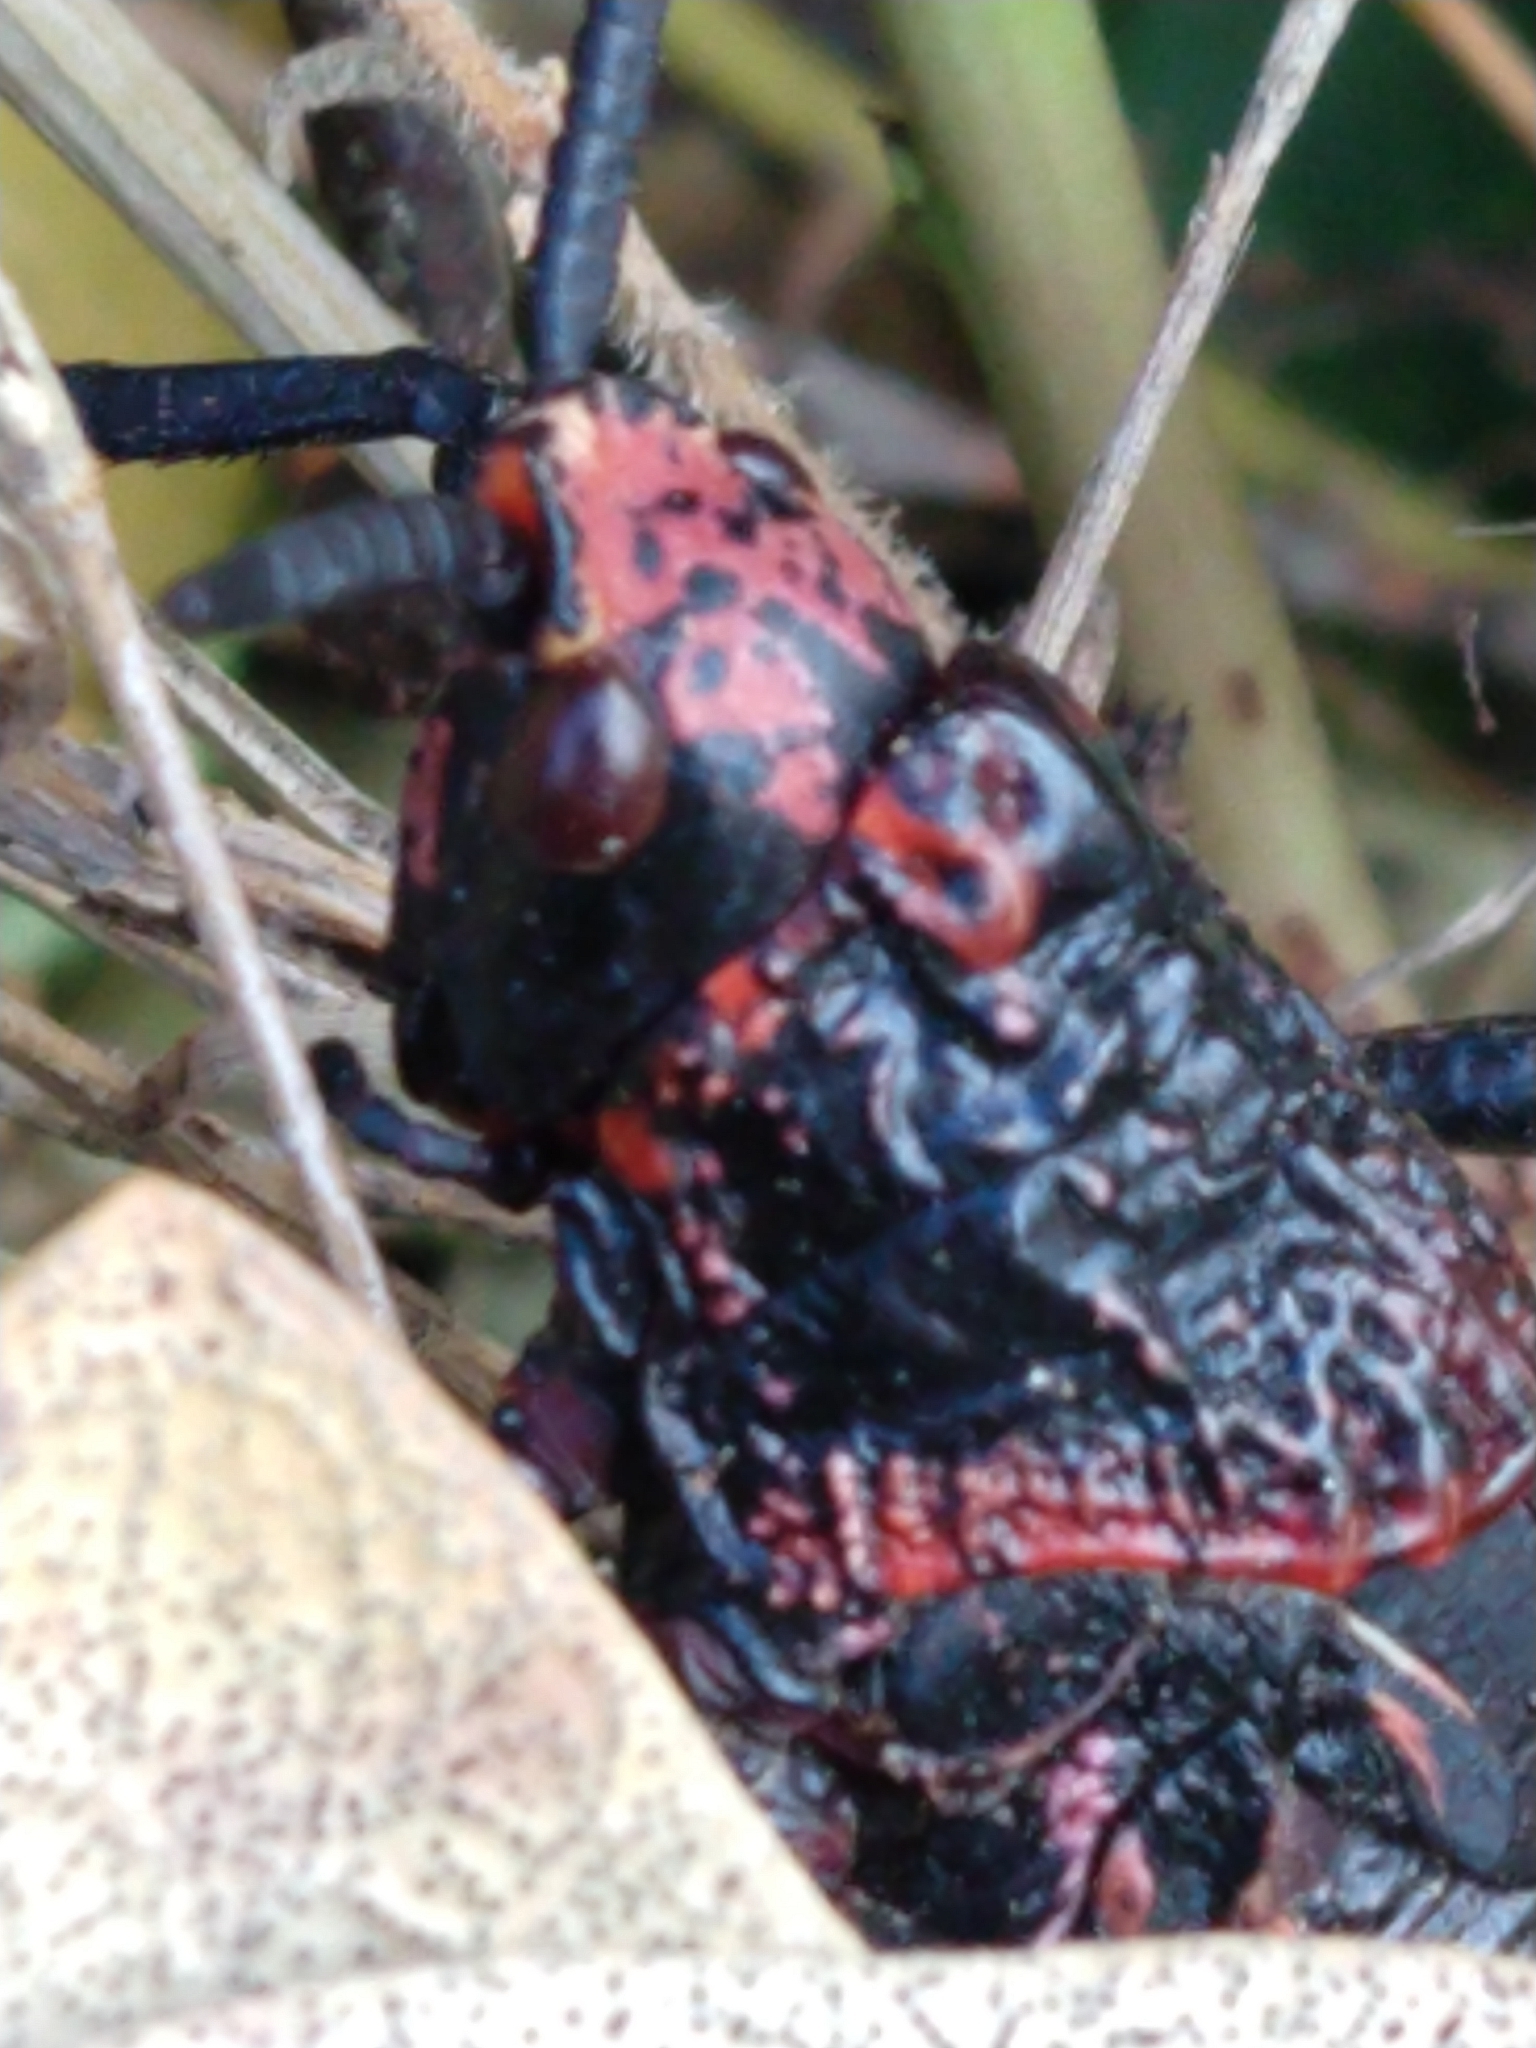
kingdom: Animalia
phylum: Arthropoda
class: Insecta
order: Orthoptera
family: Pyrgomorphidae
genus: Dictyophorus
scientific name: Dictyophorus spumans
